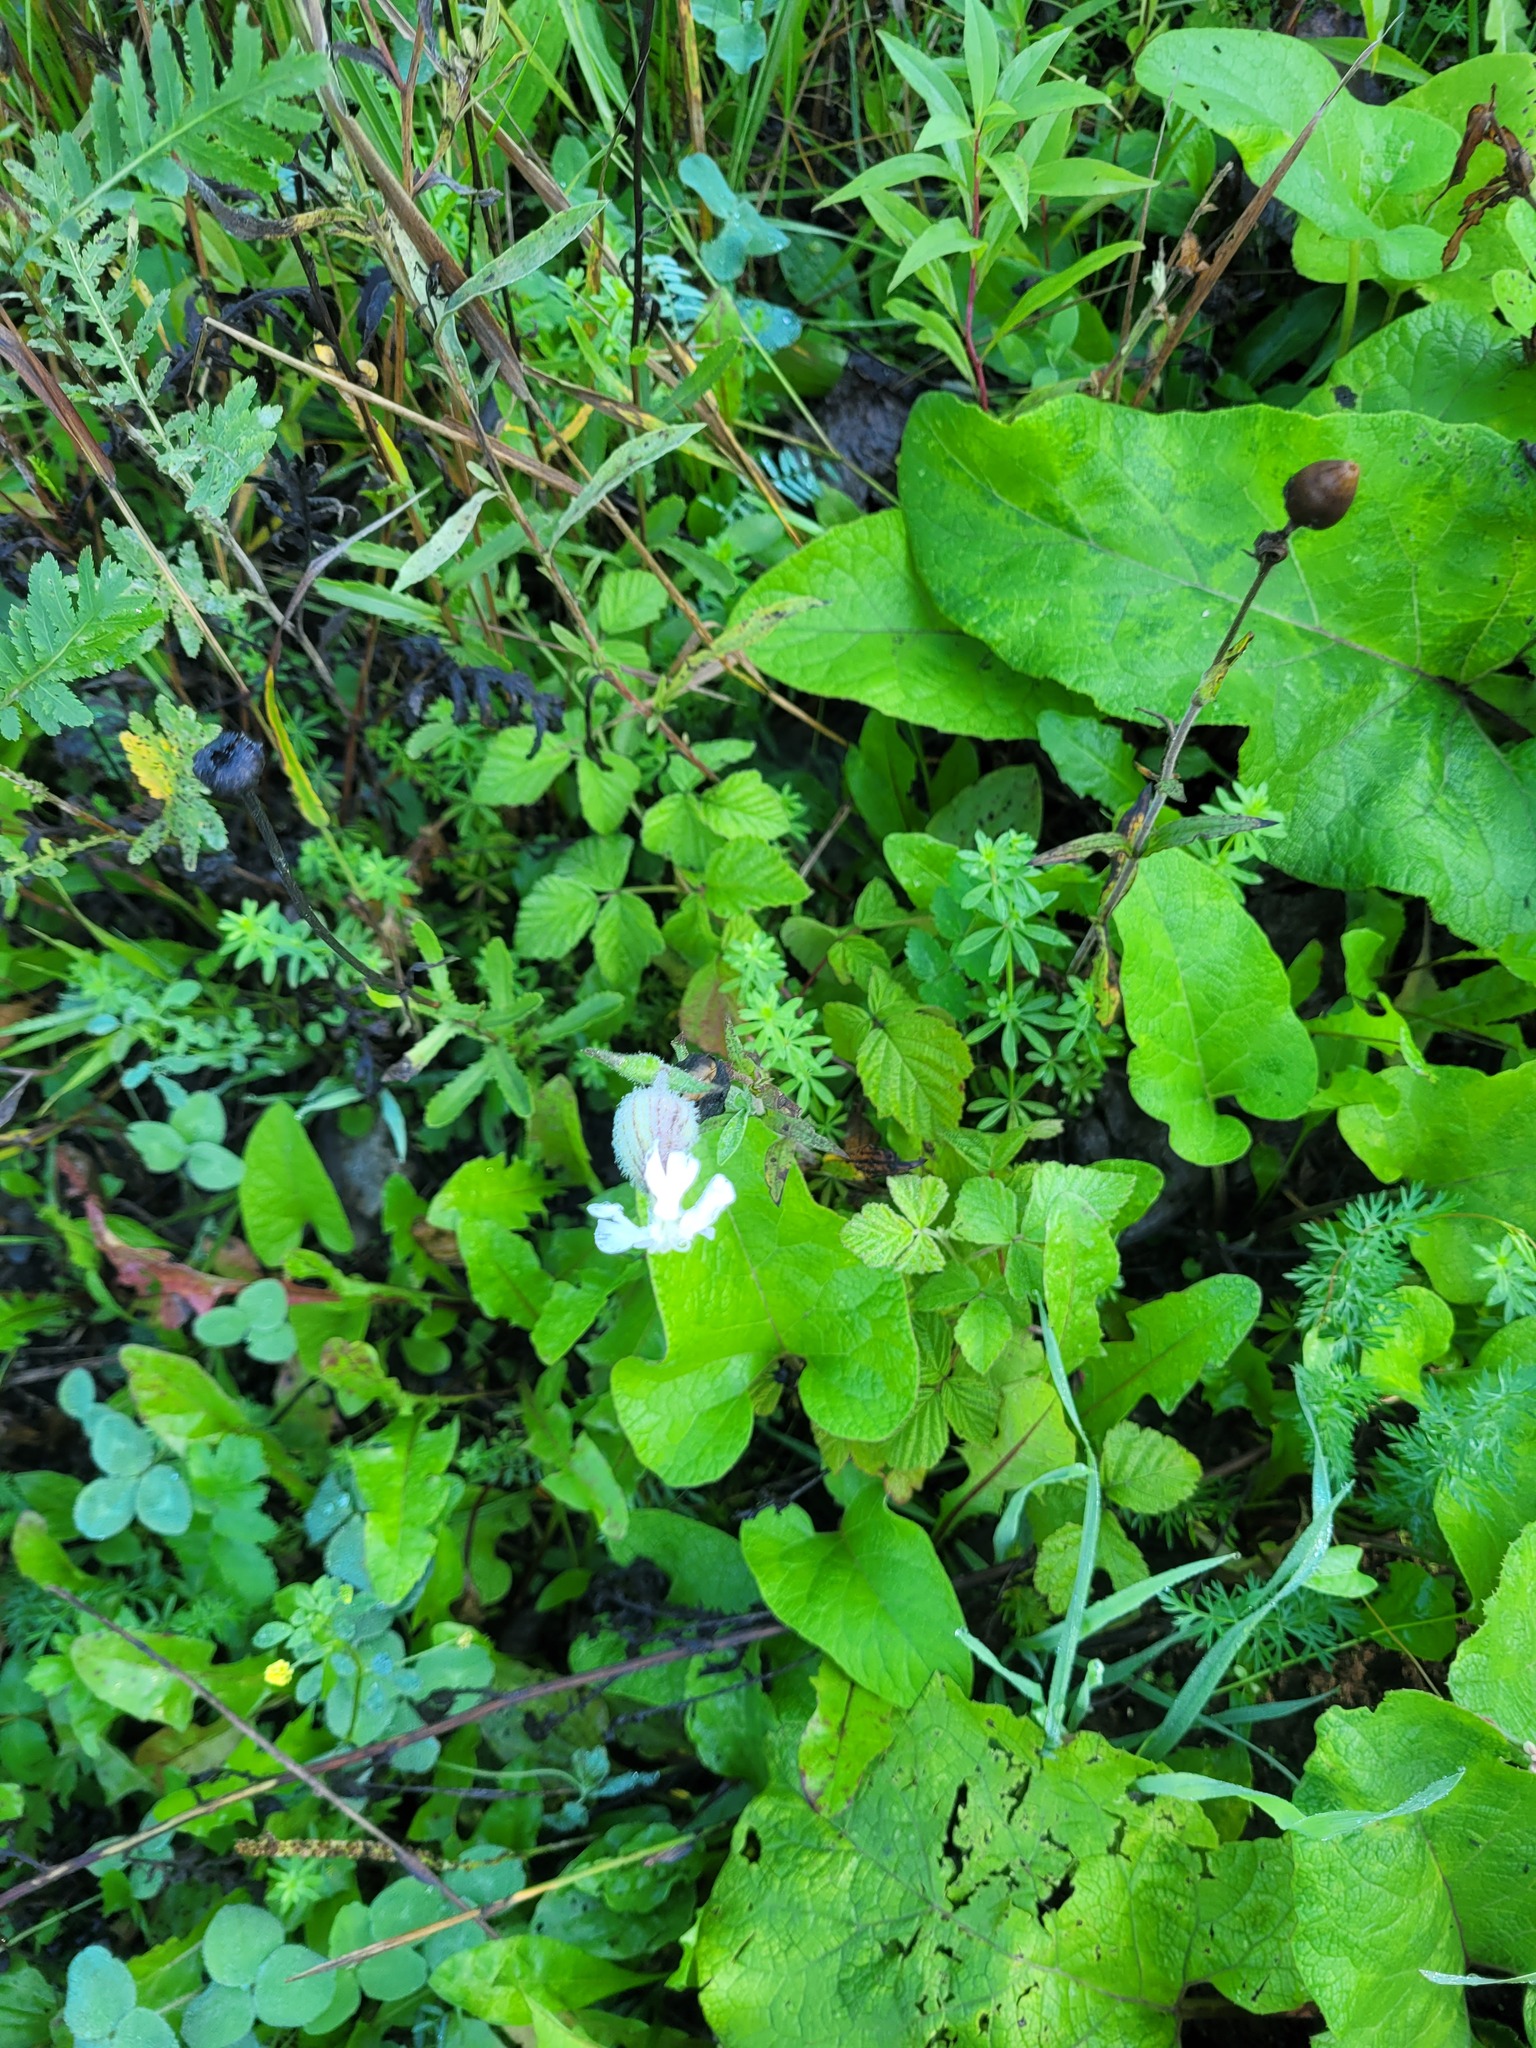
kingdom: Plantae
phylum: Tracheophyta
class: Magnoliopsida
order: Caryophyllales
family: Caryophyllaceae
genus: Silene
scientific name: Silene latifolia
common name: White campion
